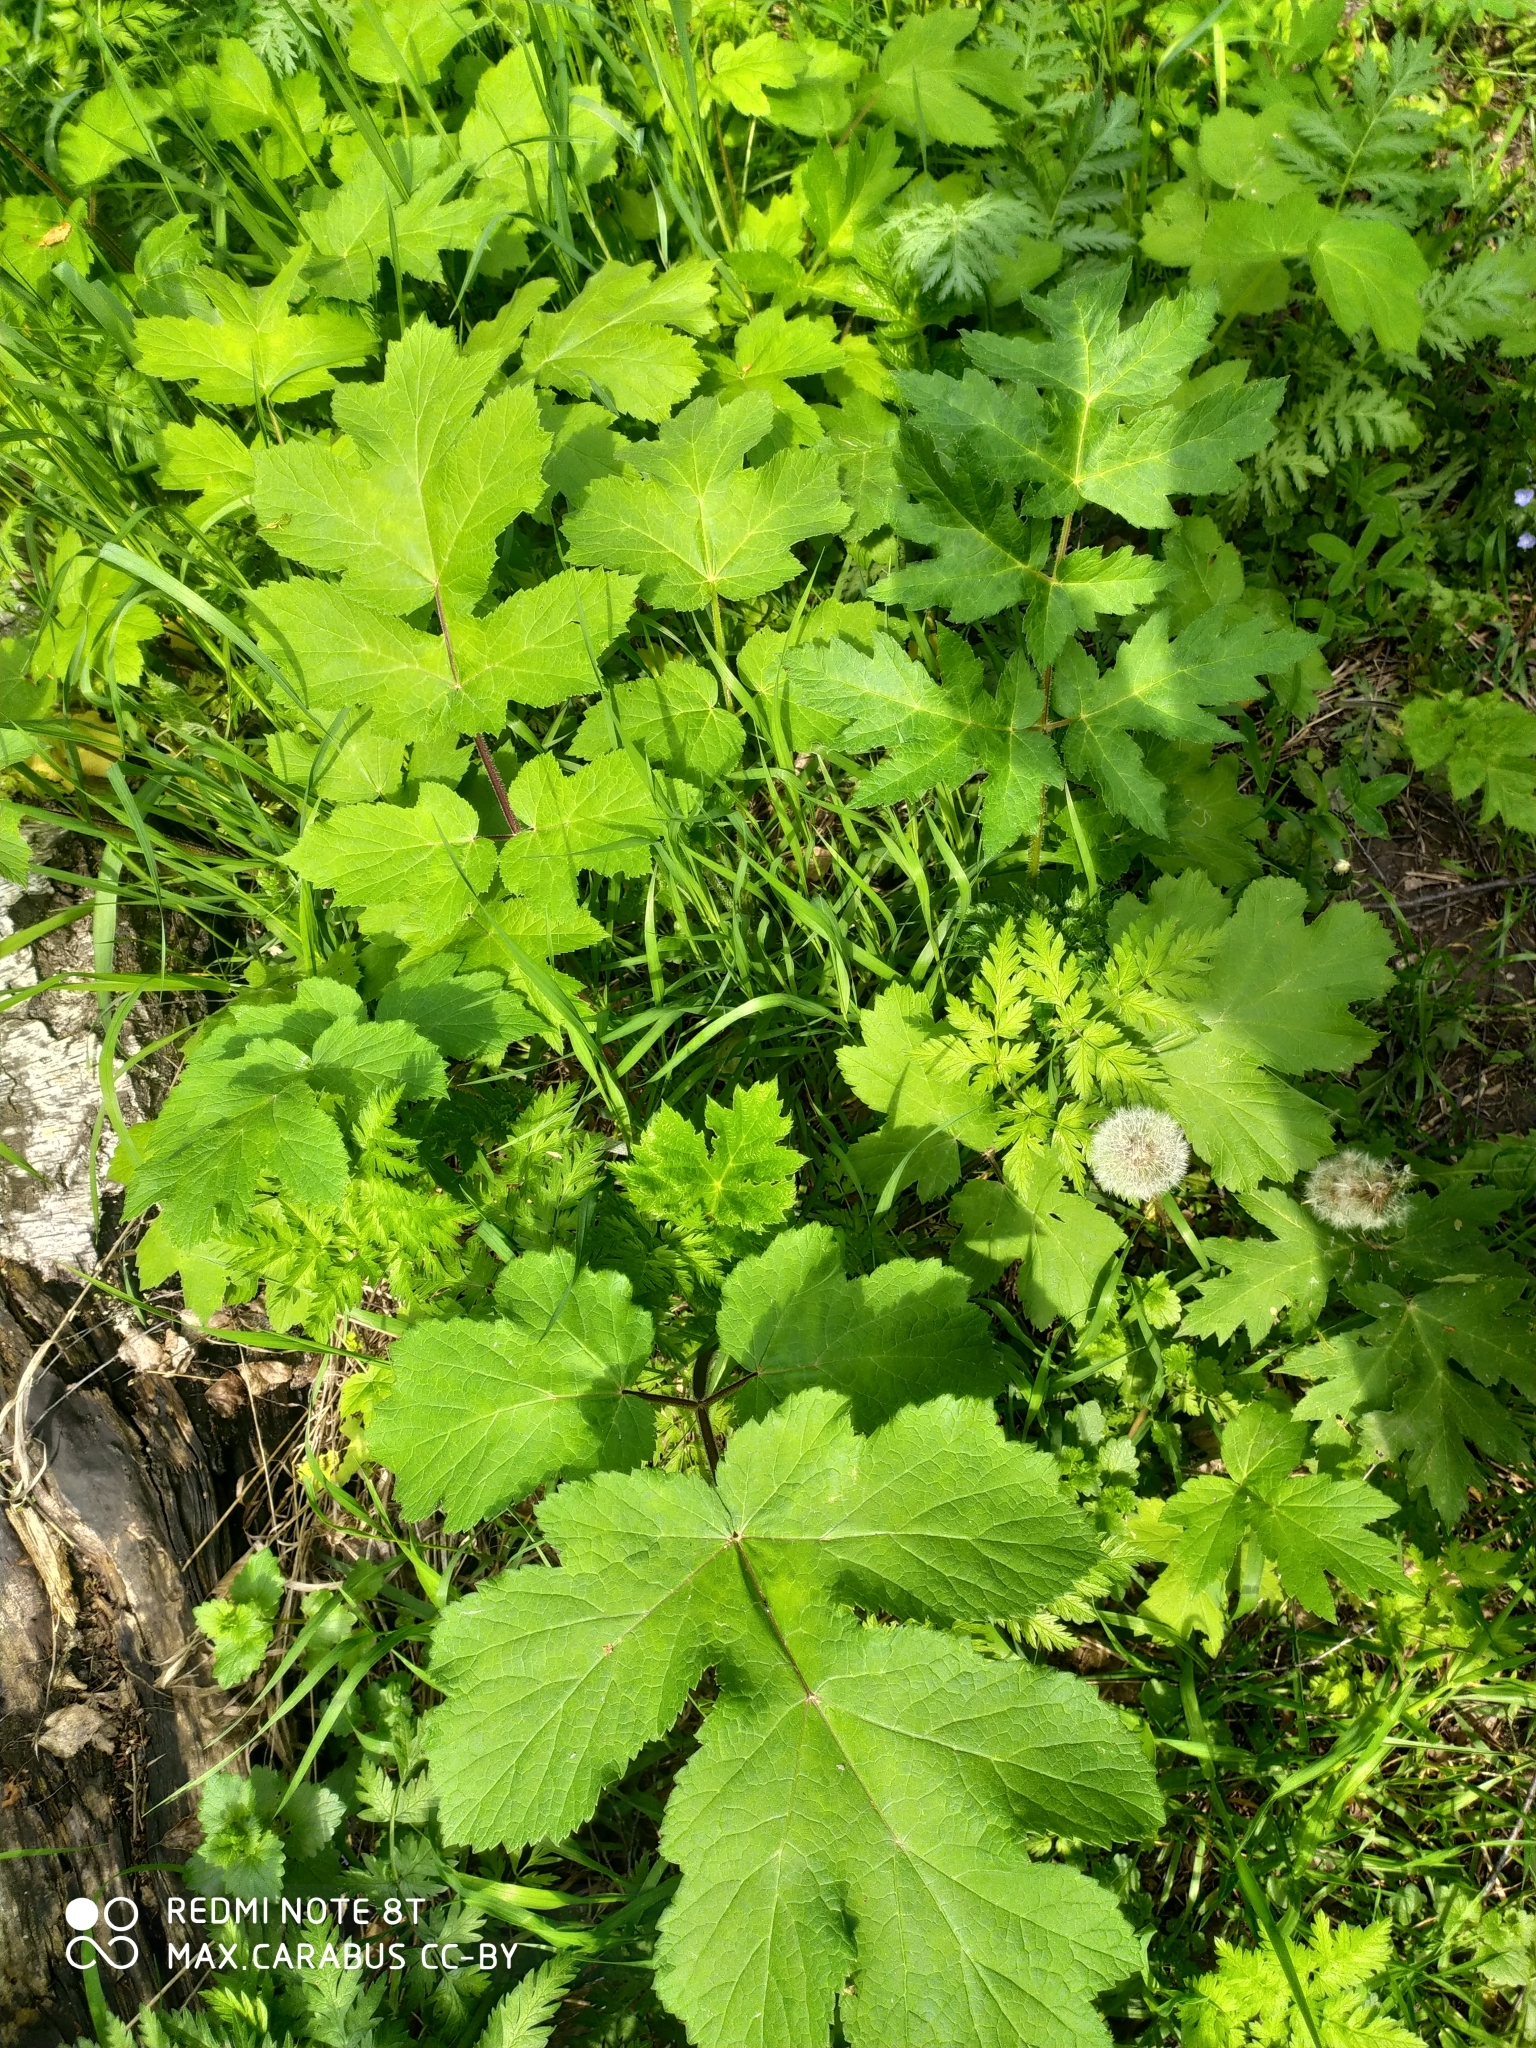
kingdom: Plantae
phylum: Tracheophyta
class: Magnoliopsida
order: Apiales
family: Apiaceae
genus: Heracleum
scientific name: Heracleum sphondylium
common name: Hogweed
